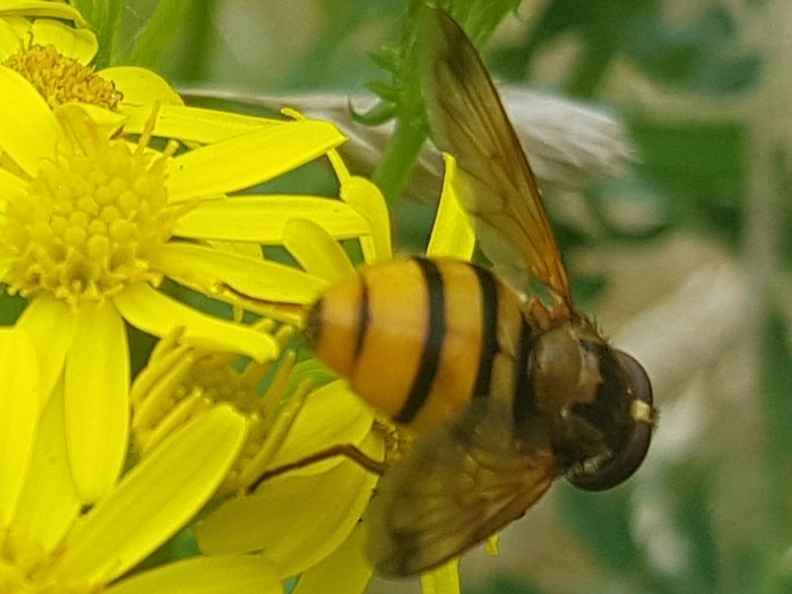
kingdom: Animalia
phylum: Arthropoda
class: Insecta
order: Diptera
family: Syrphidae
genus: Volucella
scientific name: Volucella inanis
